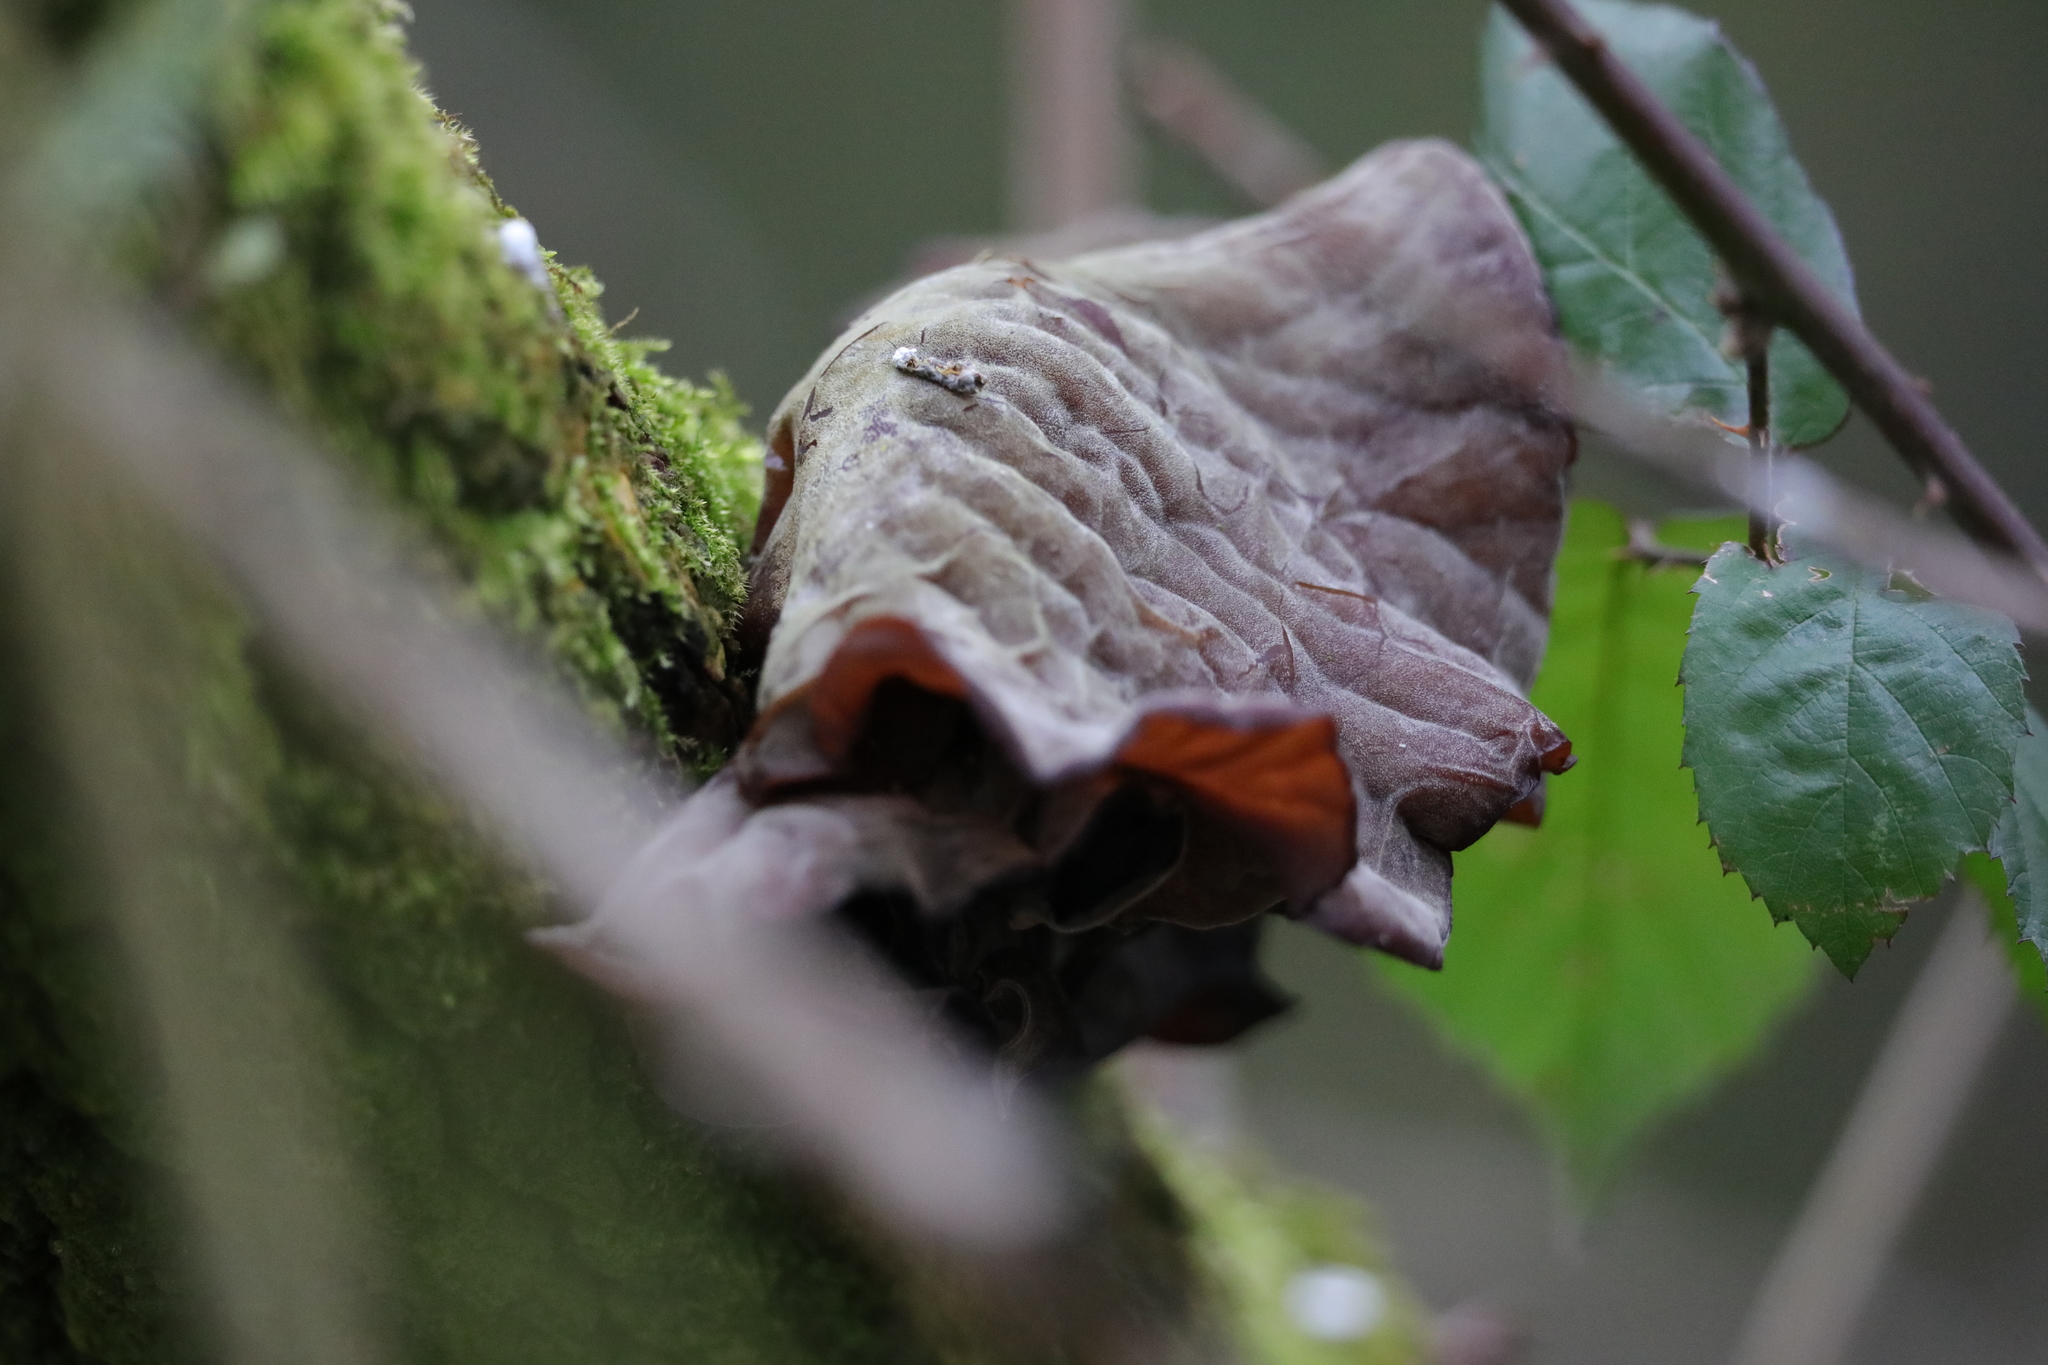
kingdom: Fungi
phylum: Basidiomycota
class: Agaricomycetes
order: Auriculariales
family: Auriculariaceae
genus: Auricularia
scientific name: Auricularia auricula-judae
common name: Jelly ear
